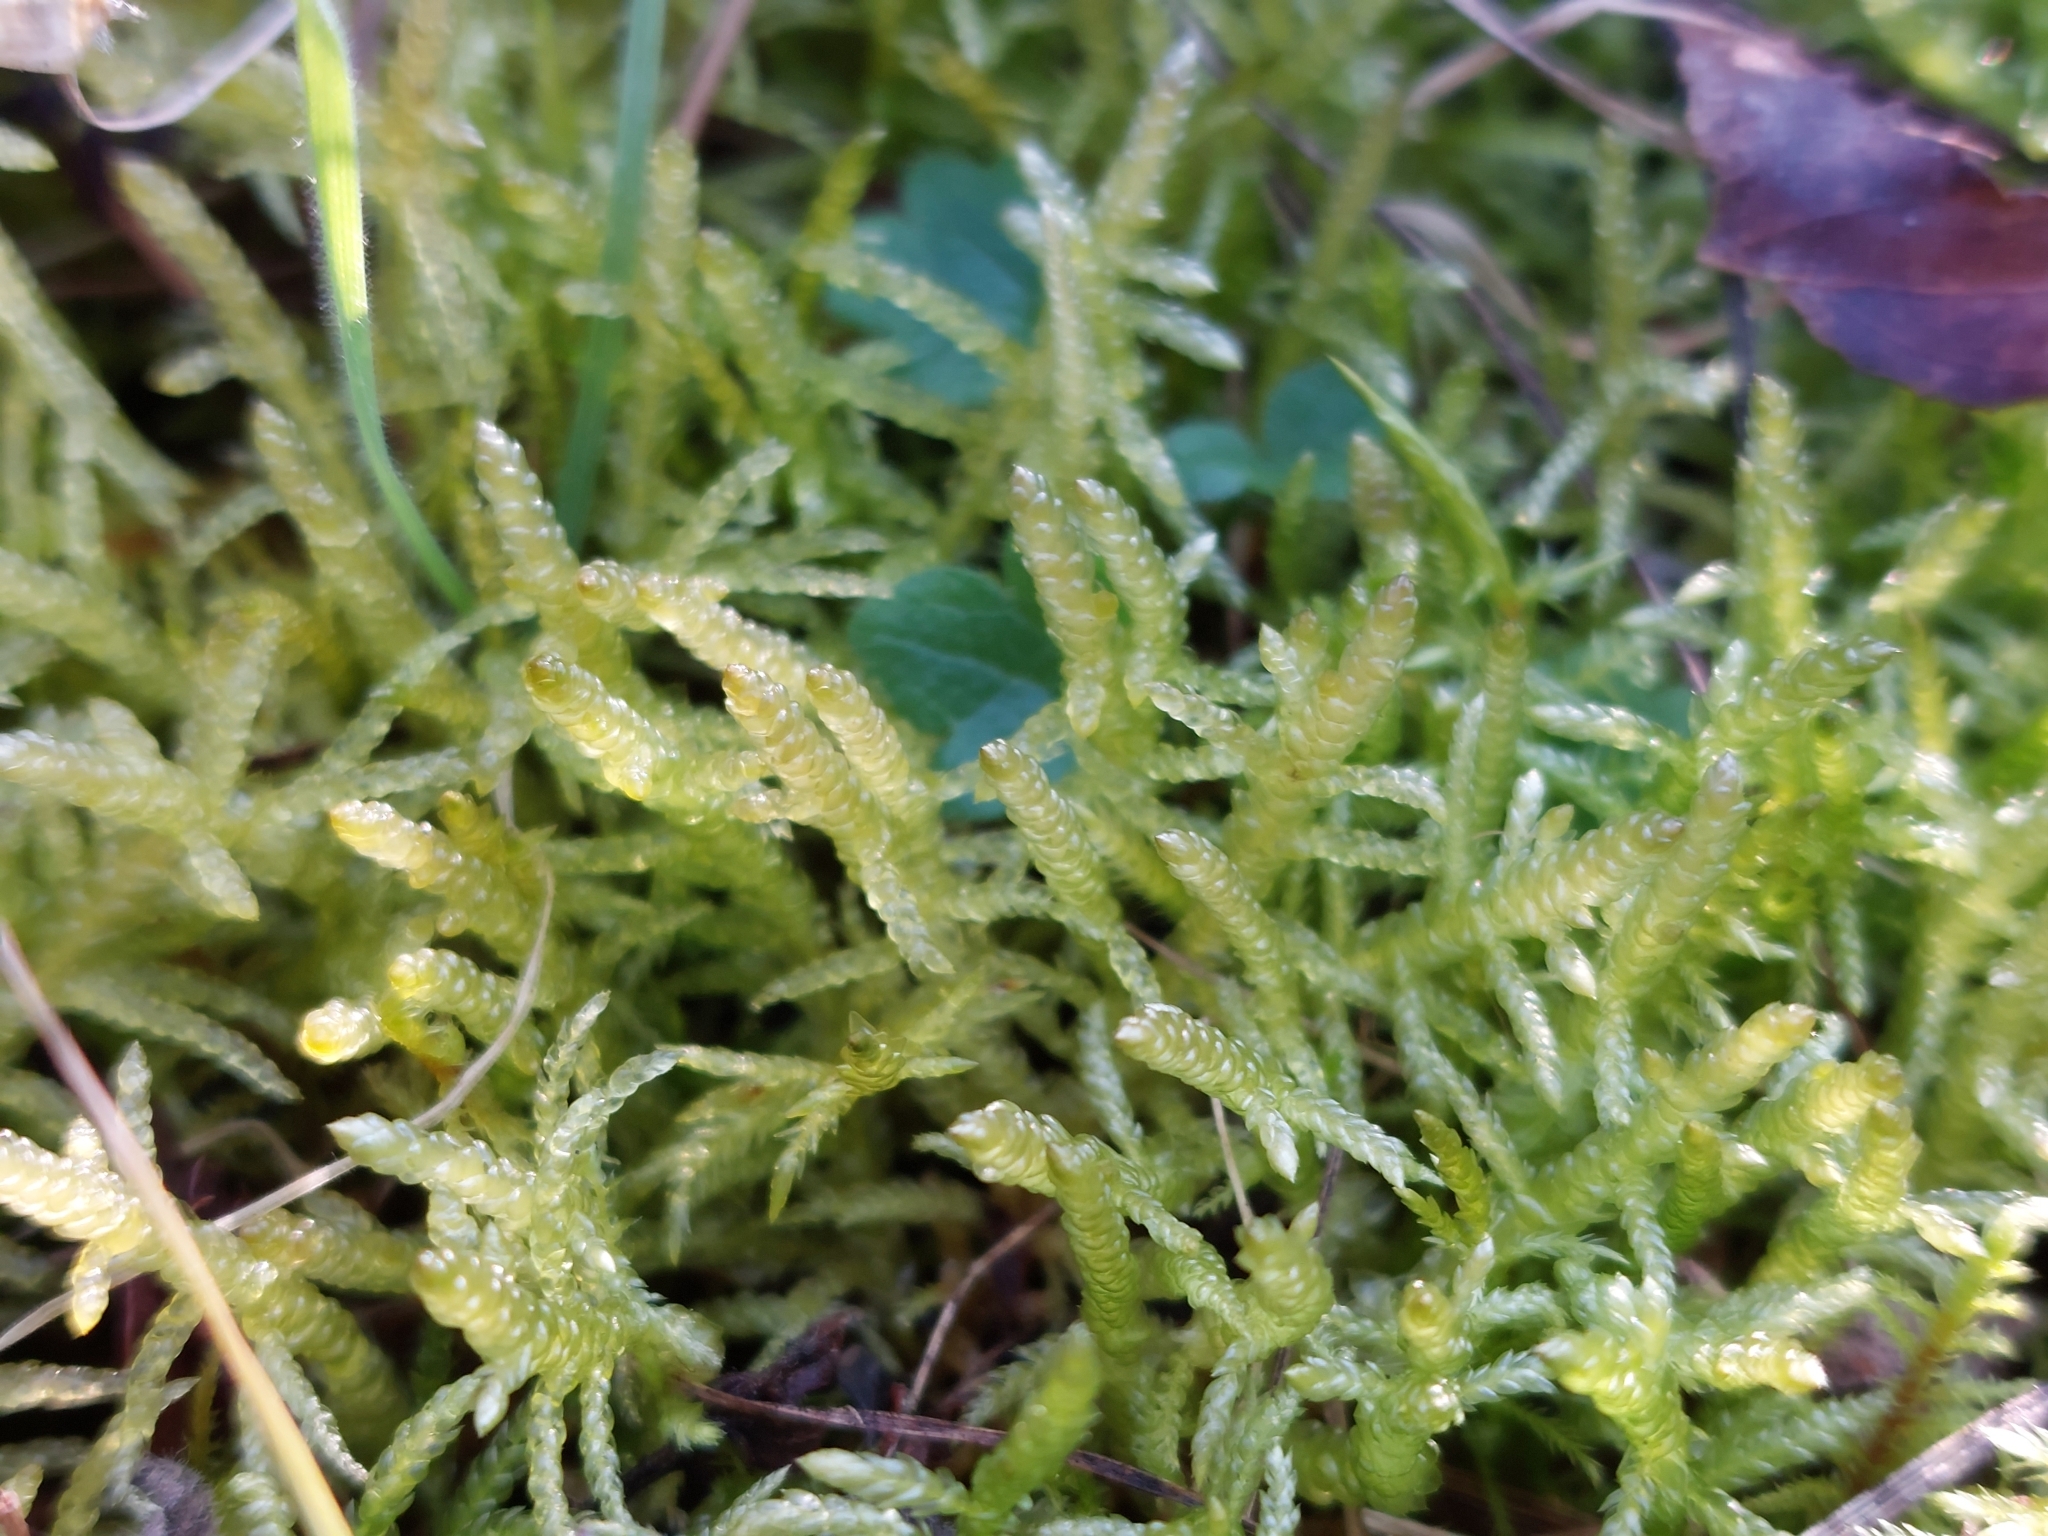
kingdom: Plantae
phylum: Bryophyta
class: Bryopsida
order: Hypnales
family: Brachytheciaceae
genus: Pseudoscleropodium
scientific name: Pseudoscleropodium purum
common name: Neat feather-moss
